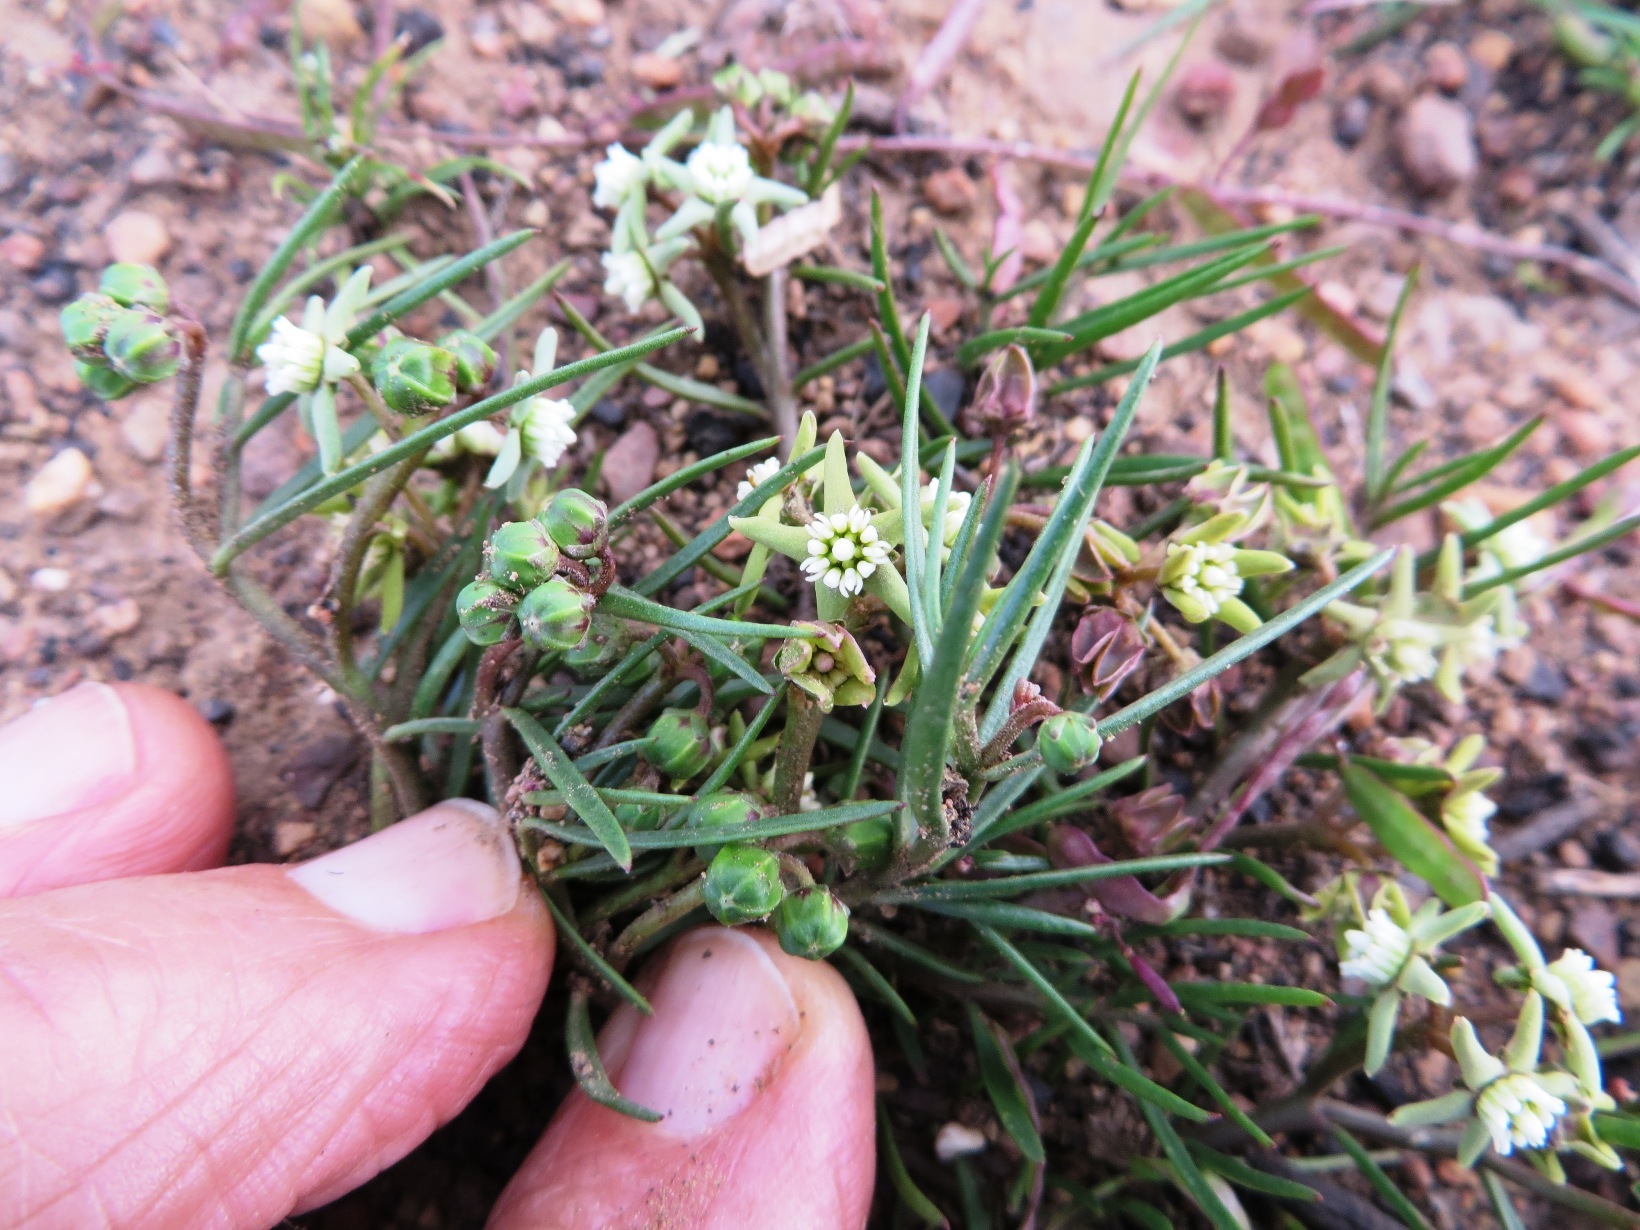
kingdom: Plantae
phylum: Tracheophyta
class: Magnoliopsida
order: Gentianales
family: Apocynaceae
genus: Eustegia
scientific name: Eustegia minuta
